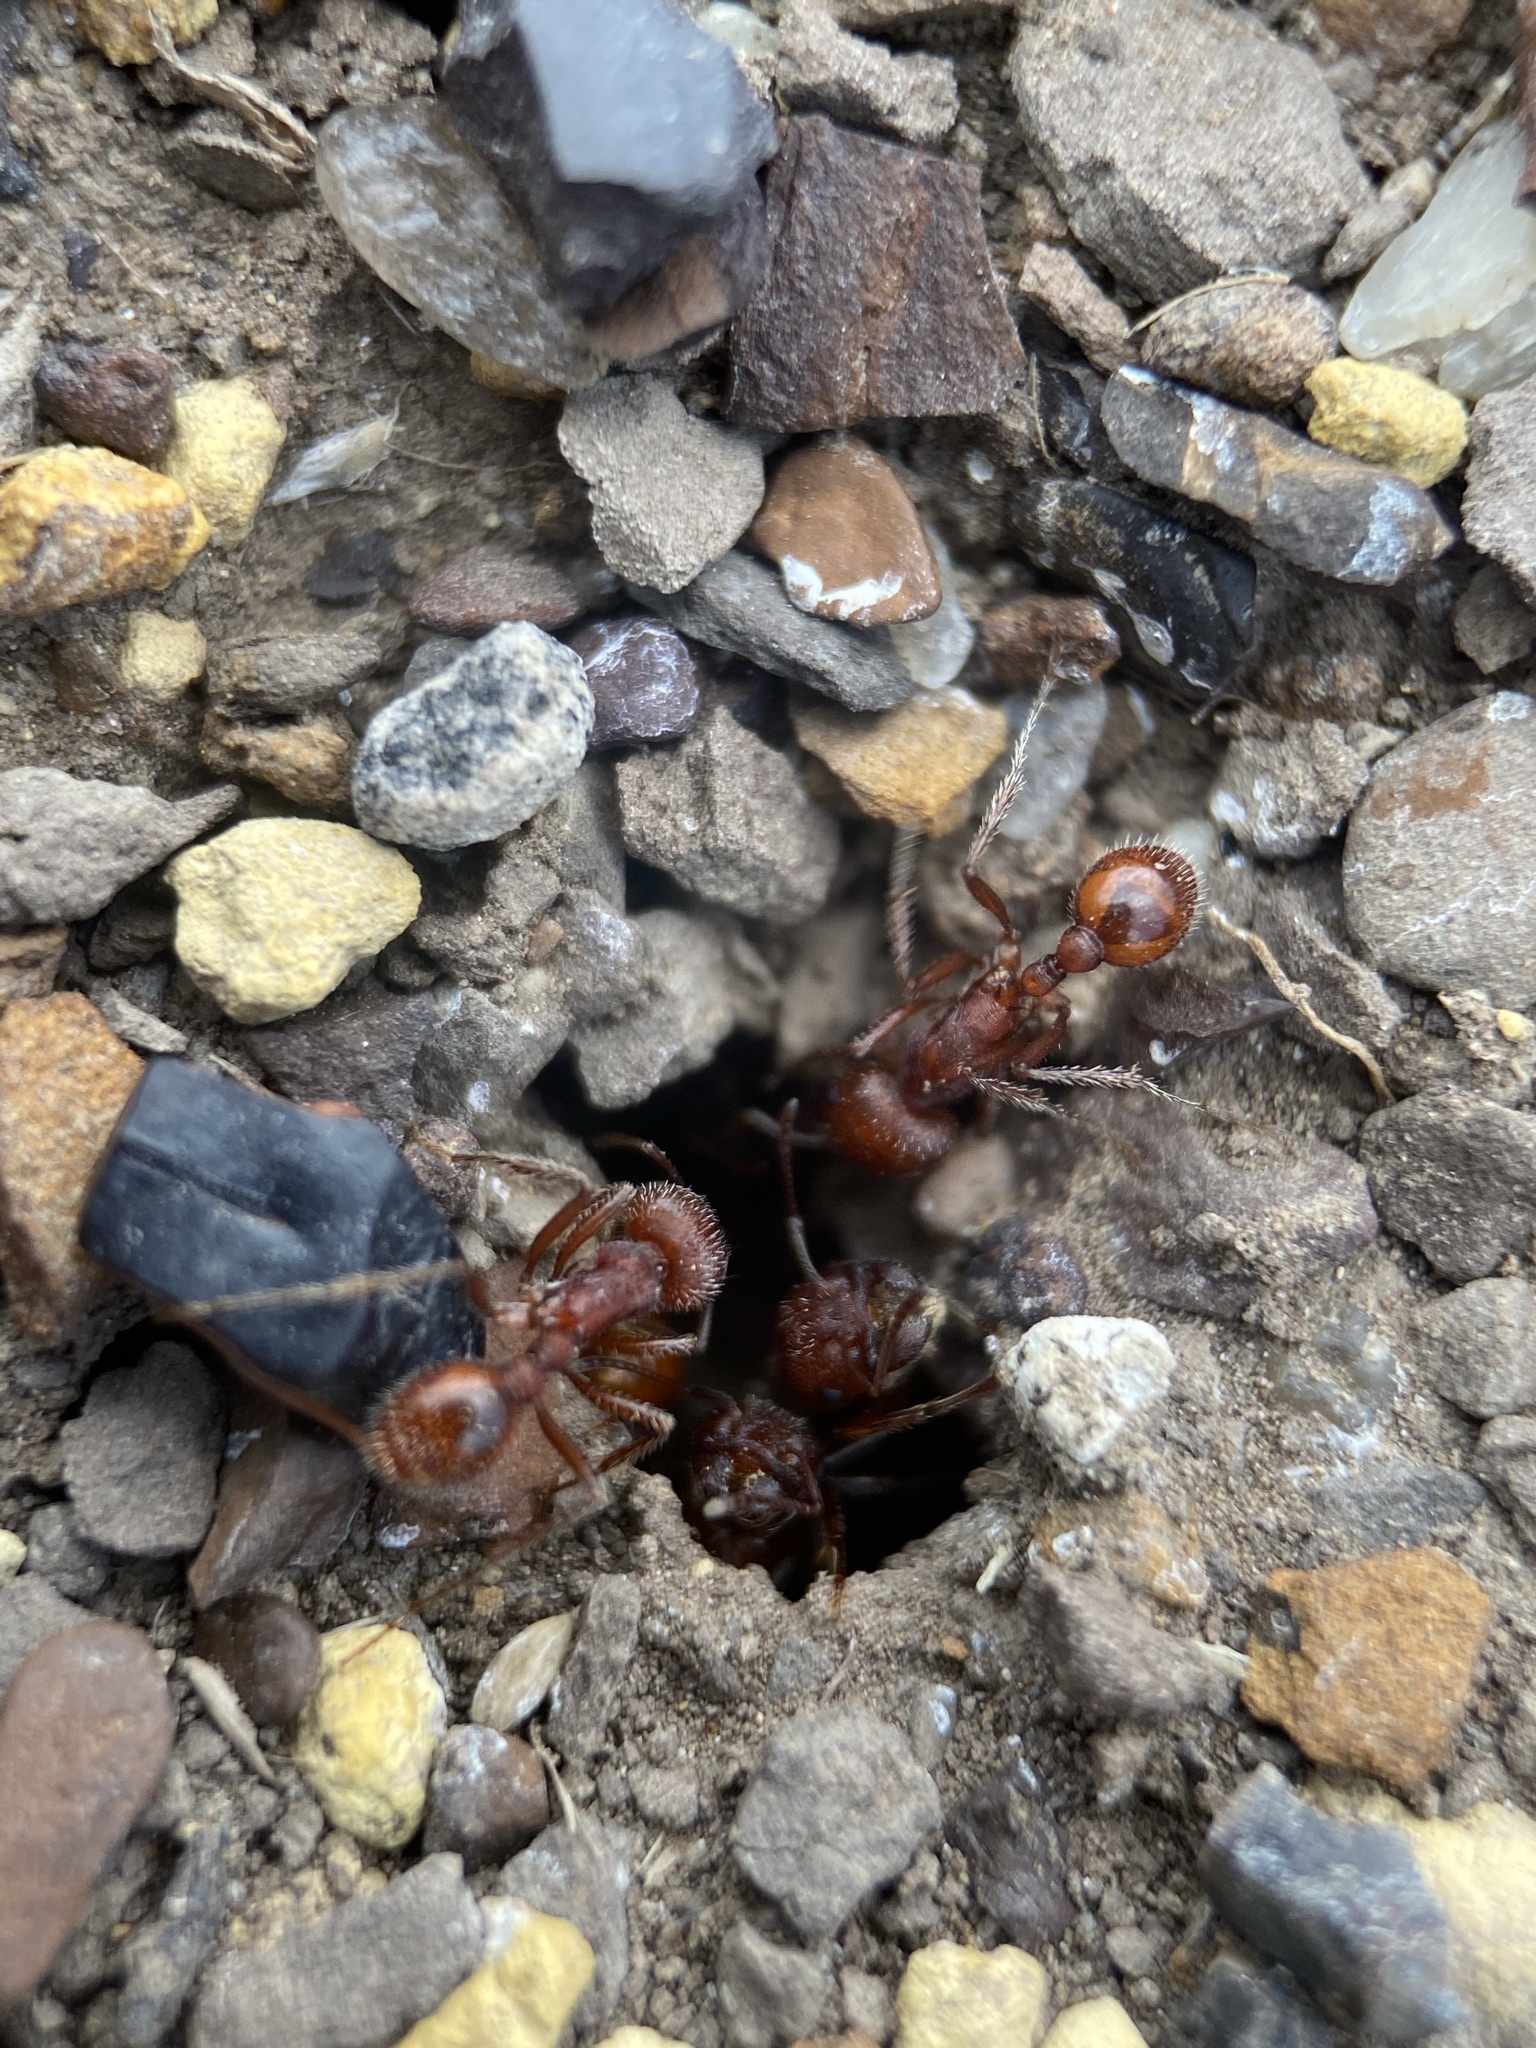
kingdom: Animalia
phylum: Arthropoda
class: Insecta
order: Hymenoptera
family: Formicidae
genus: Pogonomyrmex
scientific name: Pogonomyrmex occidentalis
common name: Western harvester ant
